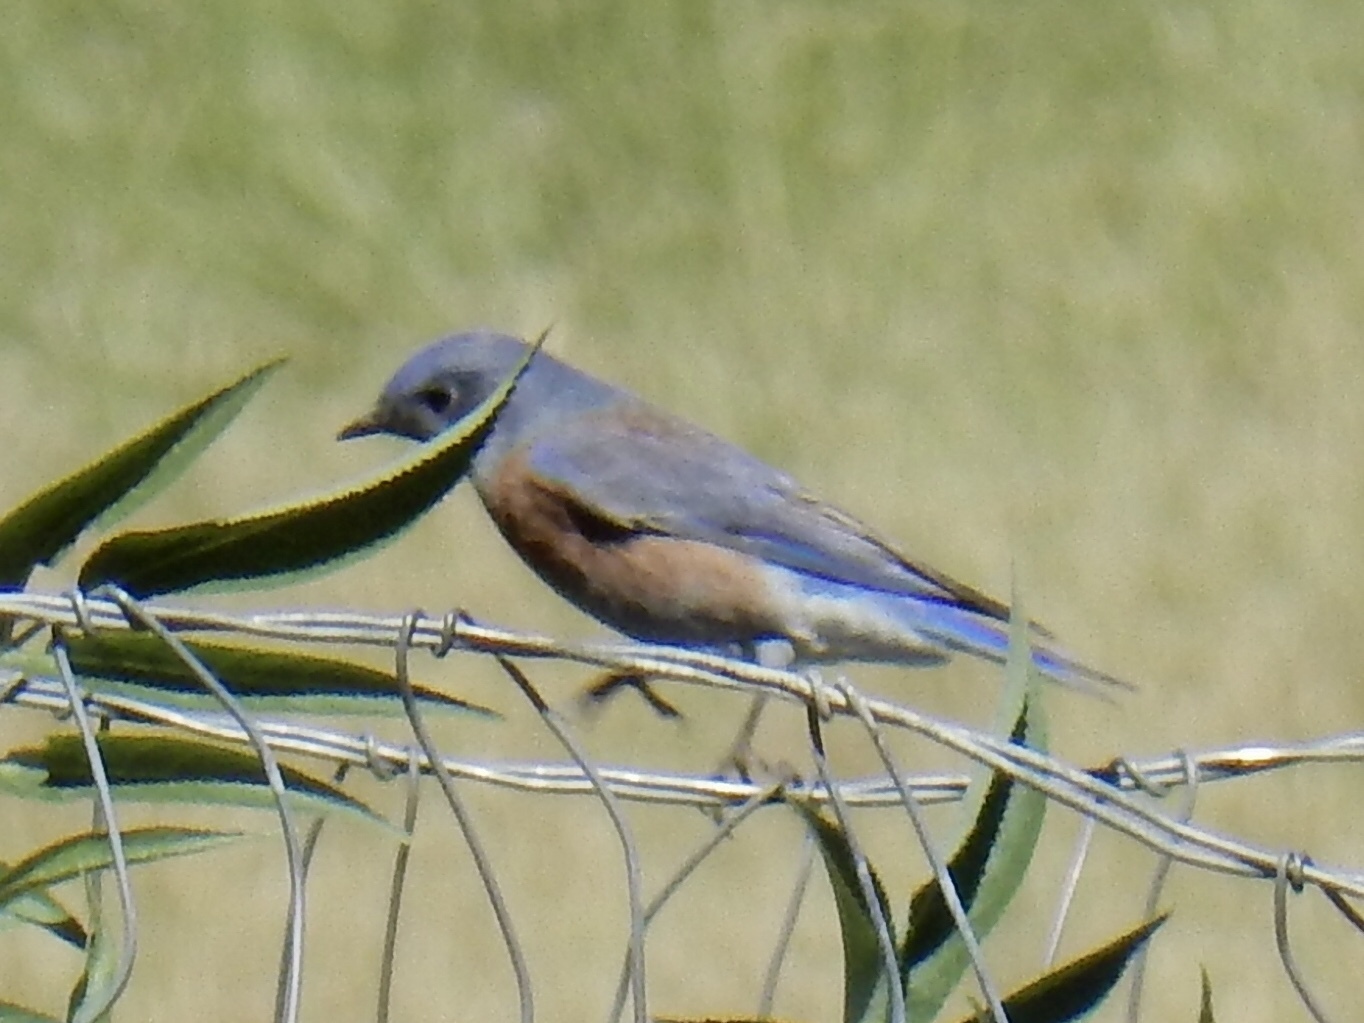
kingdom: Animalia
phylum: Chordata
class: Aves
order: Passeriformes
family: Turdidae
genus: Sialia
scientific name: Sialia mexicana
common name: Western bluebird
